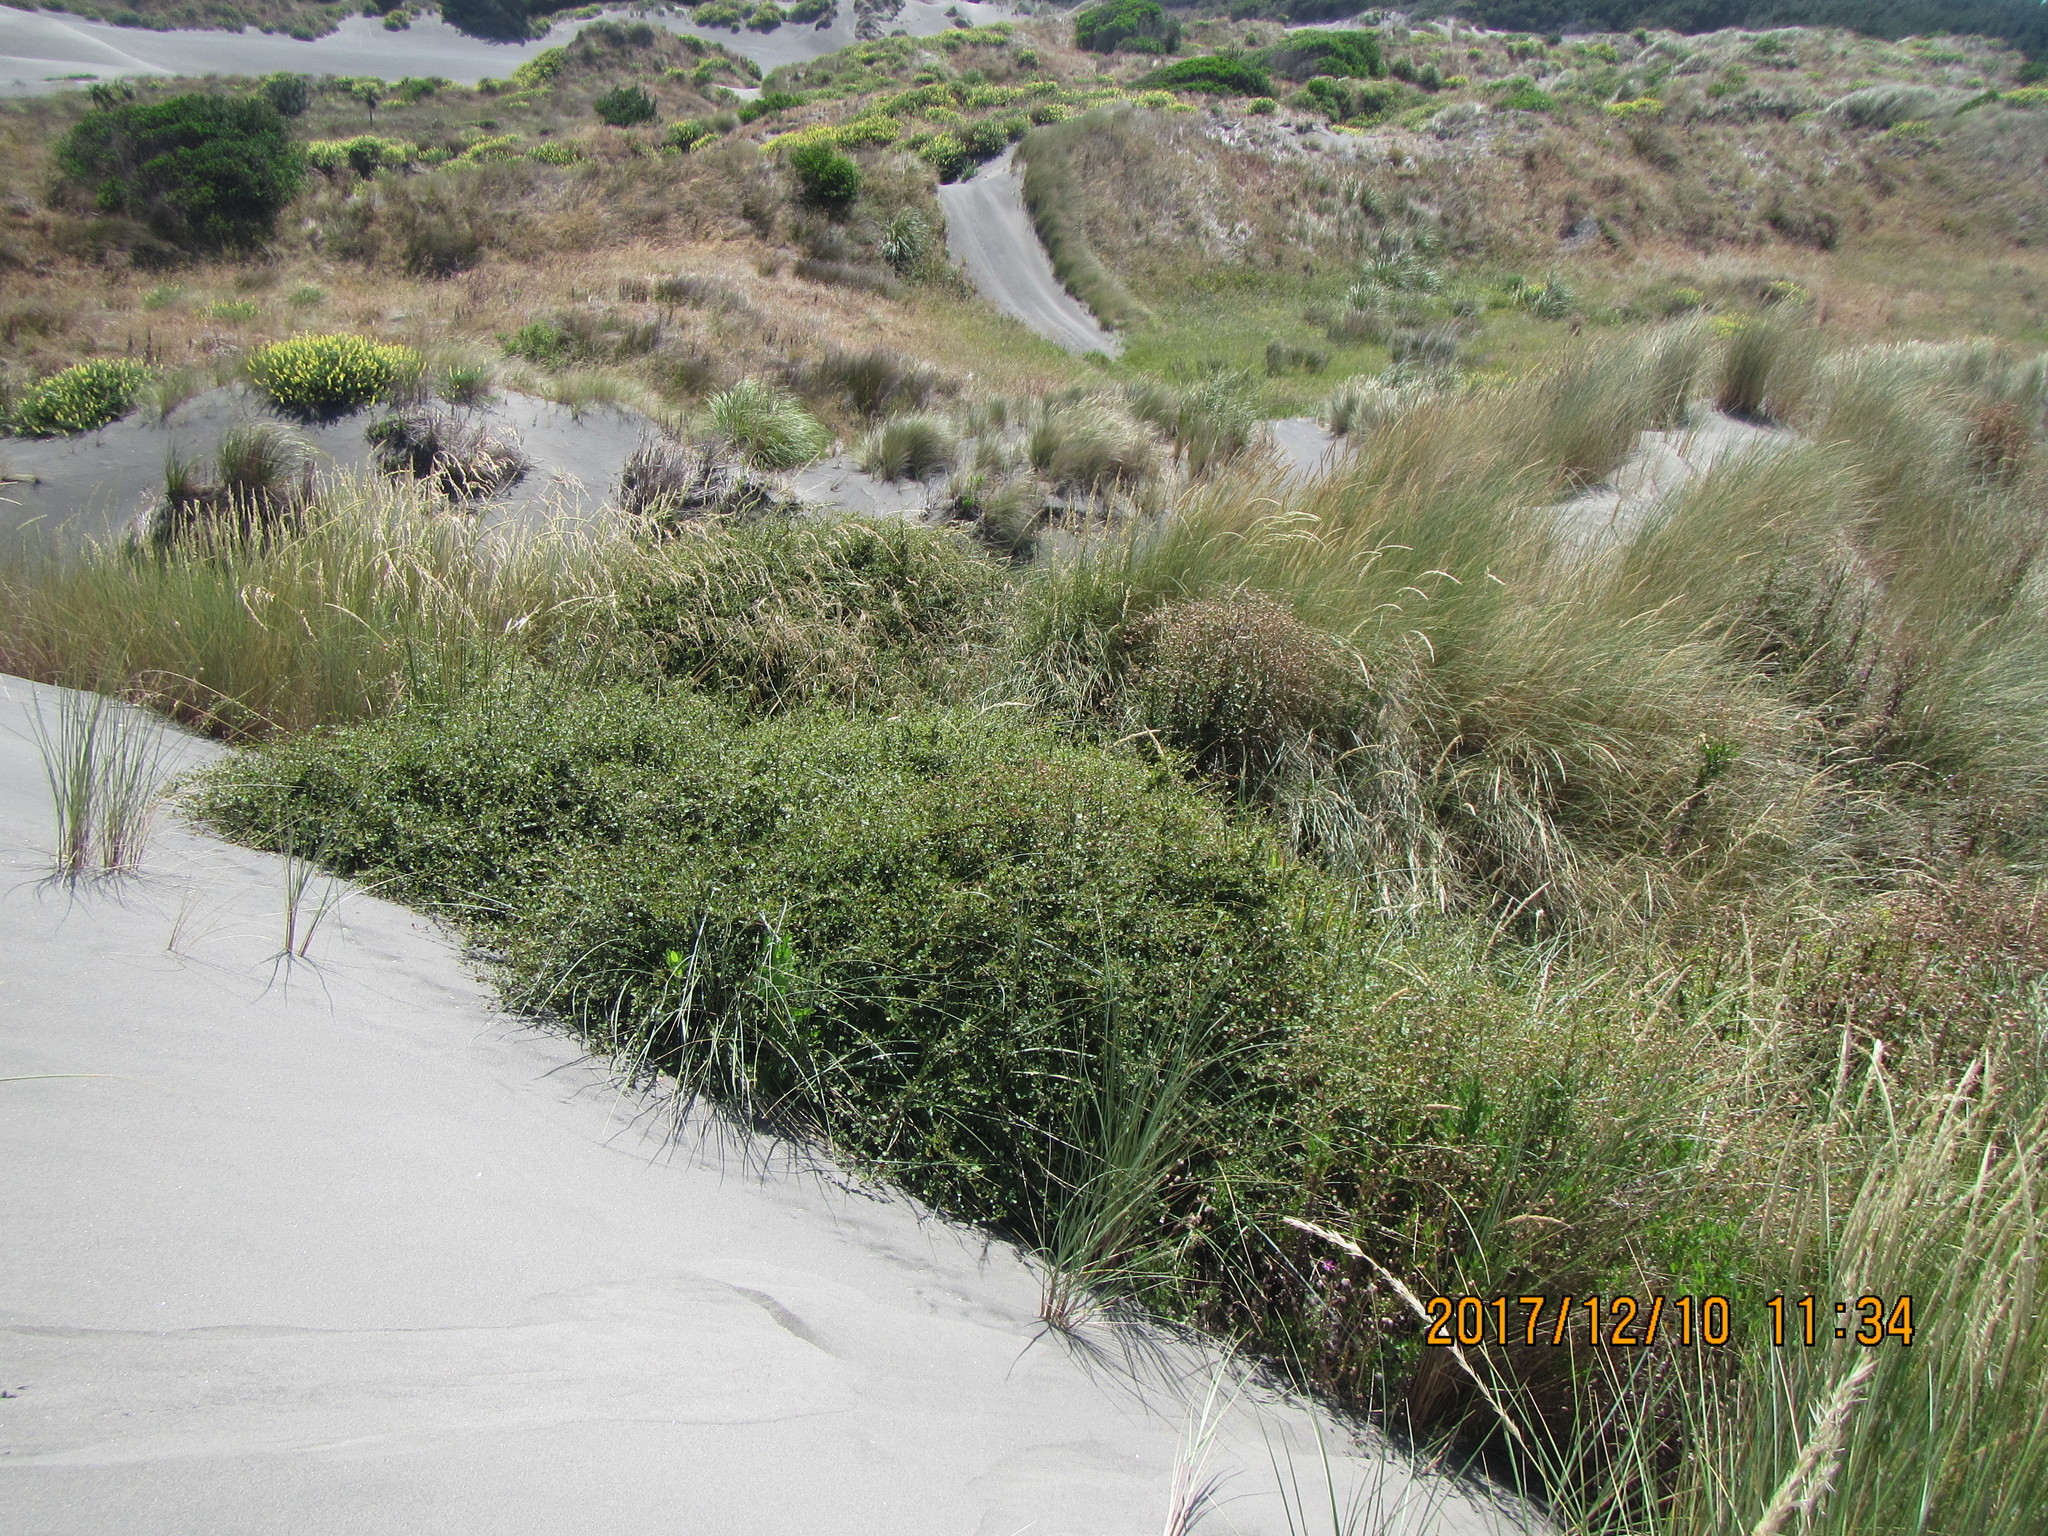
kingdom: Plantae
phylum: Tracheophyta
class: Magnoliopsida
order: Caryophyllales
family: Polygonaceae
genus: Muehlenbeckia
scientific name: Muehlenbeckia complexa
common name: Wireplant
